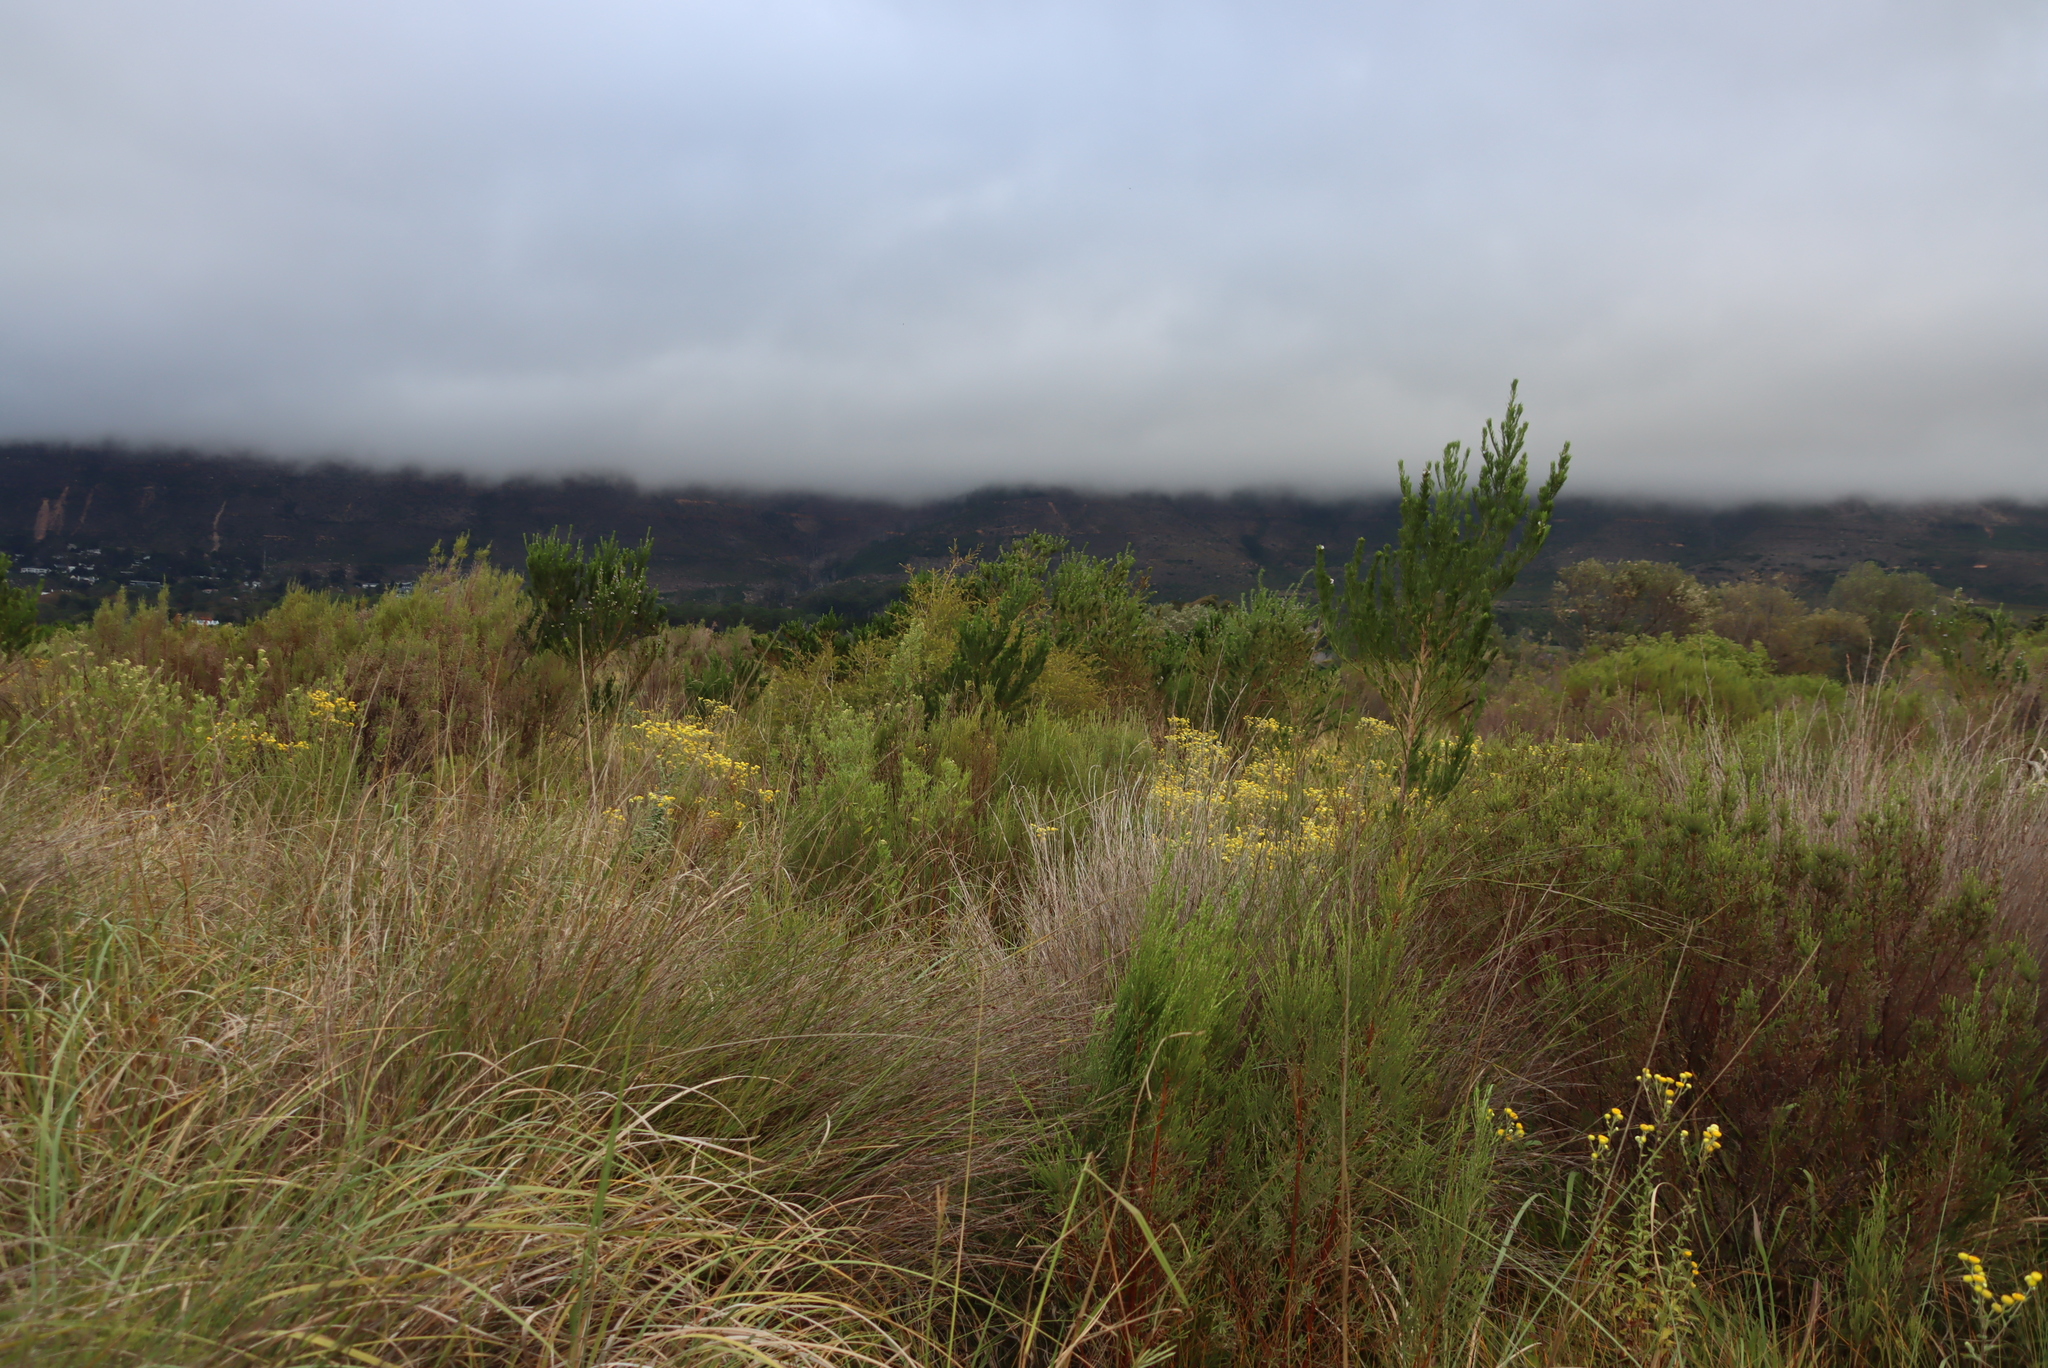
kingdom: Plantae
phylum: Tracheophyta
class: Magnoliopsida
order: Myrtales
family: Myrtaceae
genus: Melaleuca
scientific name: Melaleuca styphelioides
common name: Prickly paperbark
